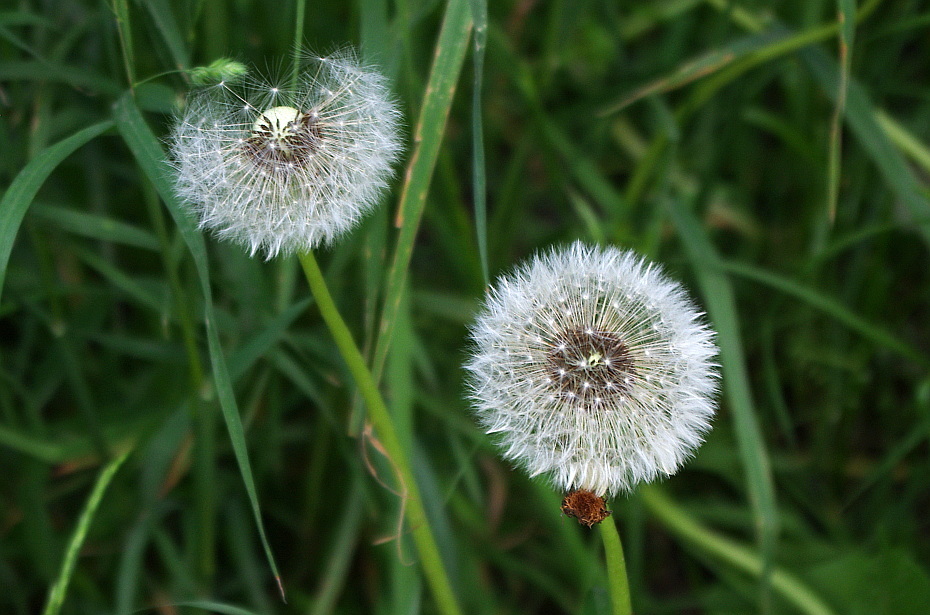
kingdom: Plantae
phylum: Tracheophyta
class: Magnoliopsida
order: Asterales
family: Asteraceae
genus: Taraxacum
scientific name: Taraxacum officinale
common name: Common dandelion
